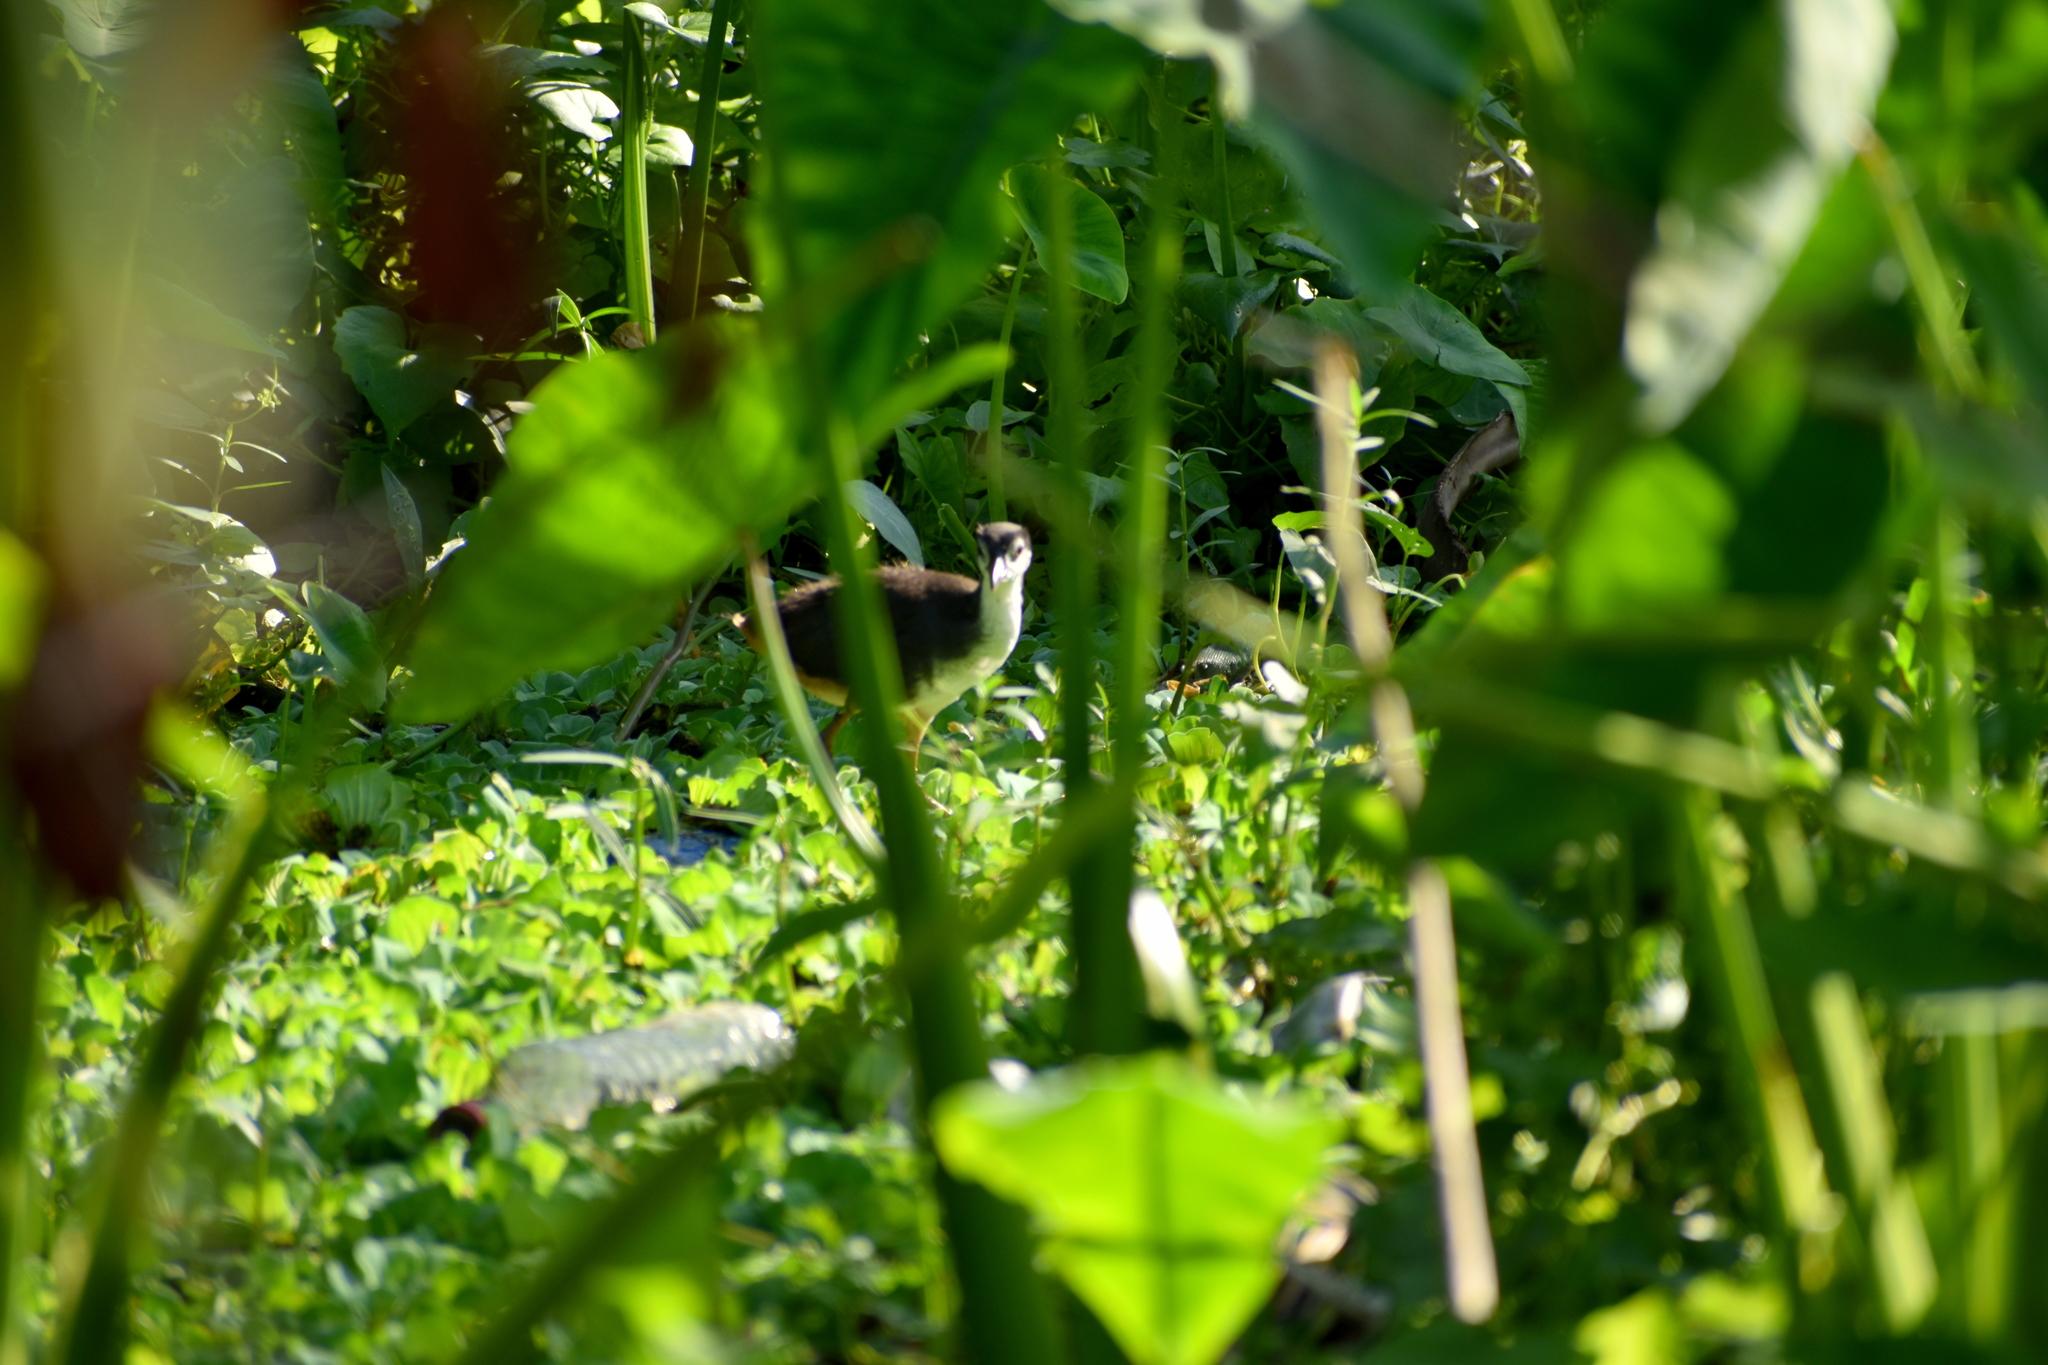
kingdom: Animalia
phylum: Chordata
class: Aves
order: Gruiformes
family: Rallidae
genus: Amaurornis
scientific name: Amaurornis phoenicurus
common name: White-breasted waterhen
